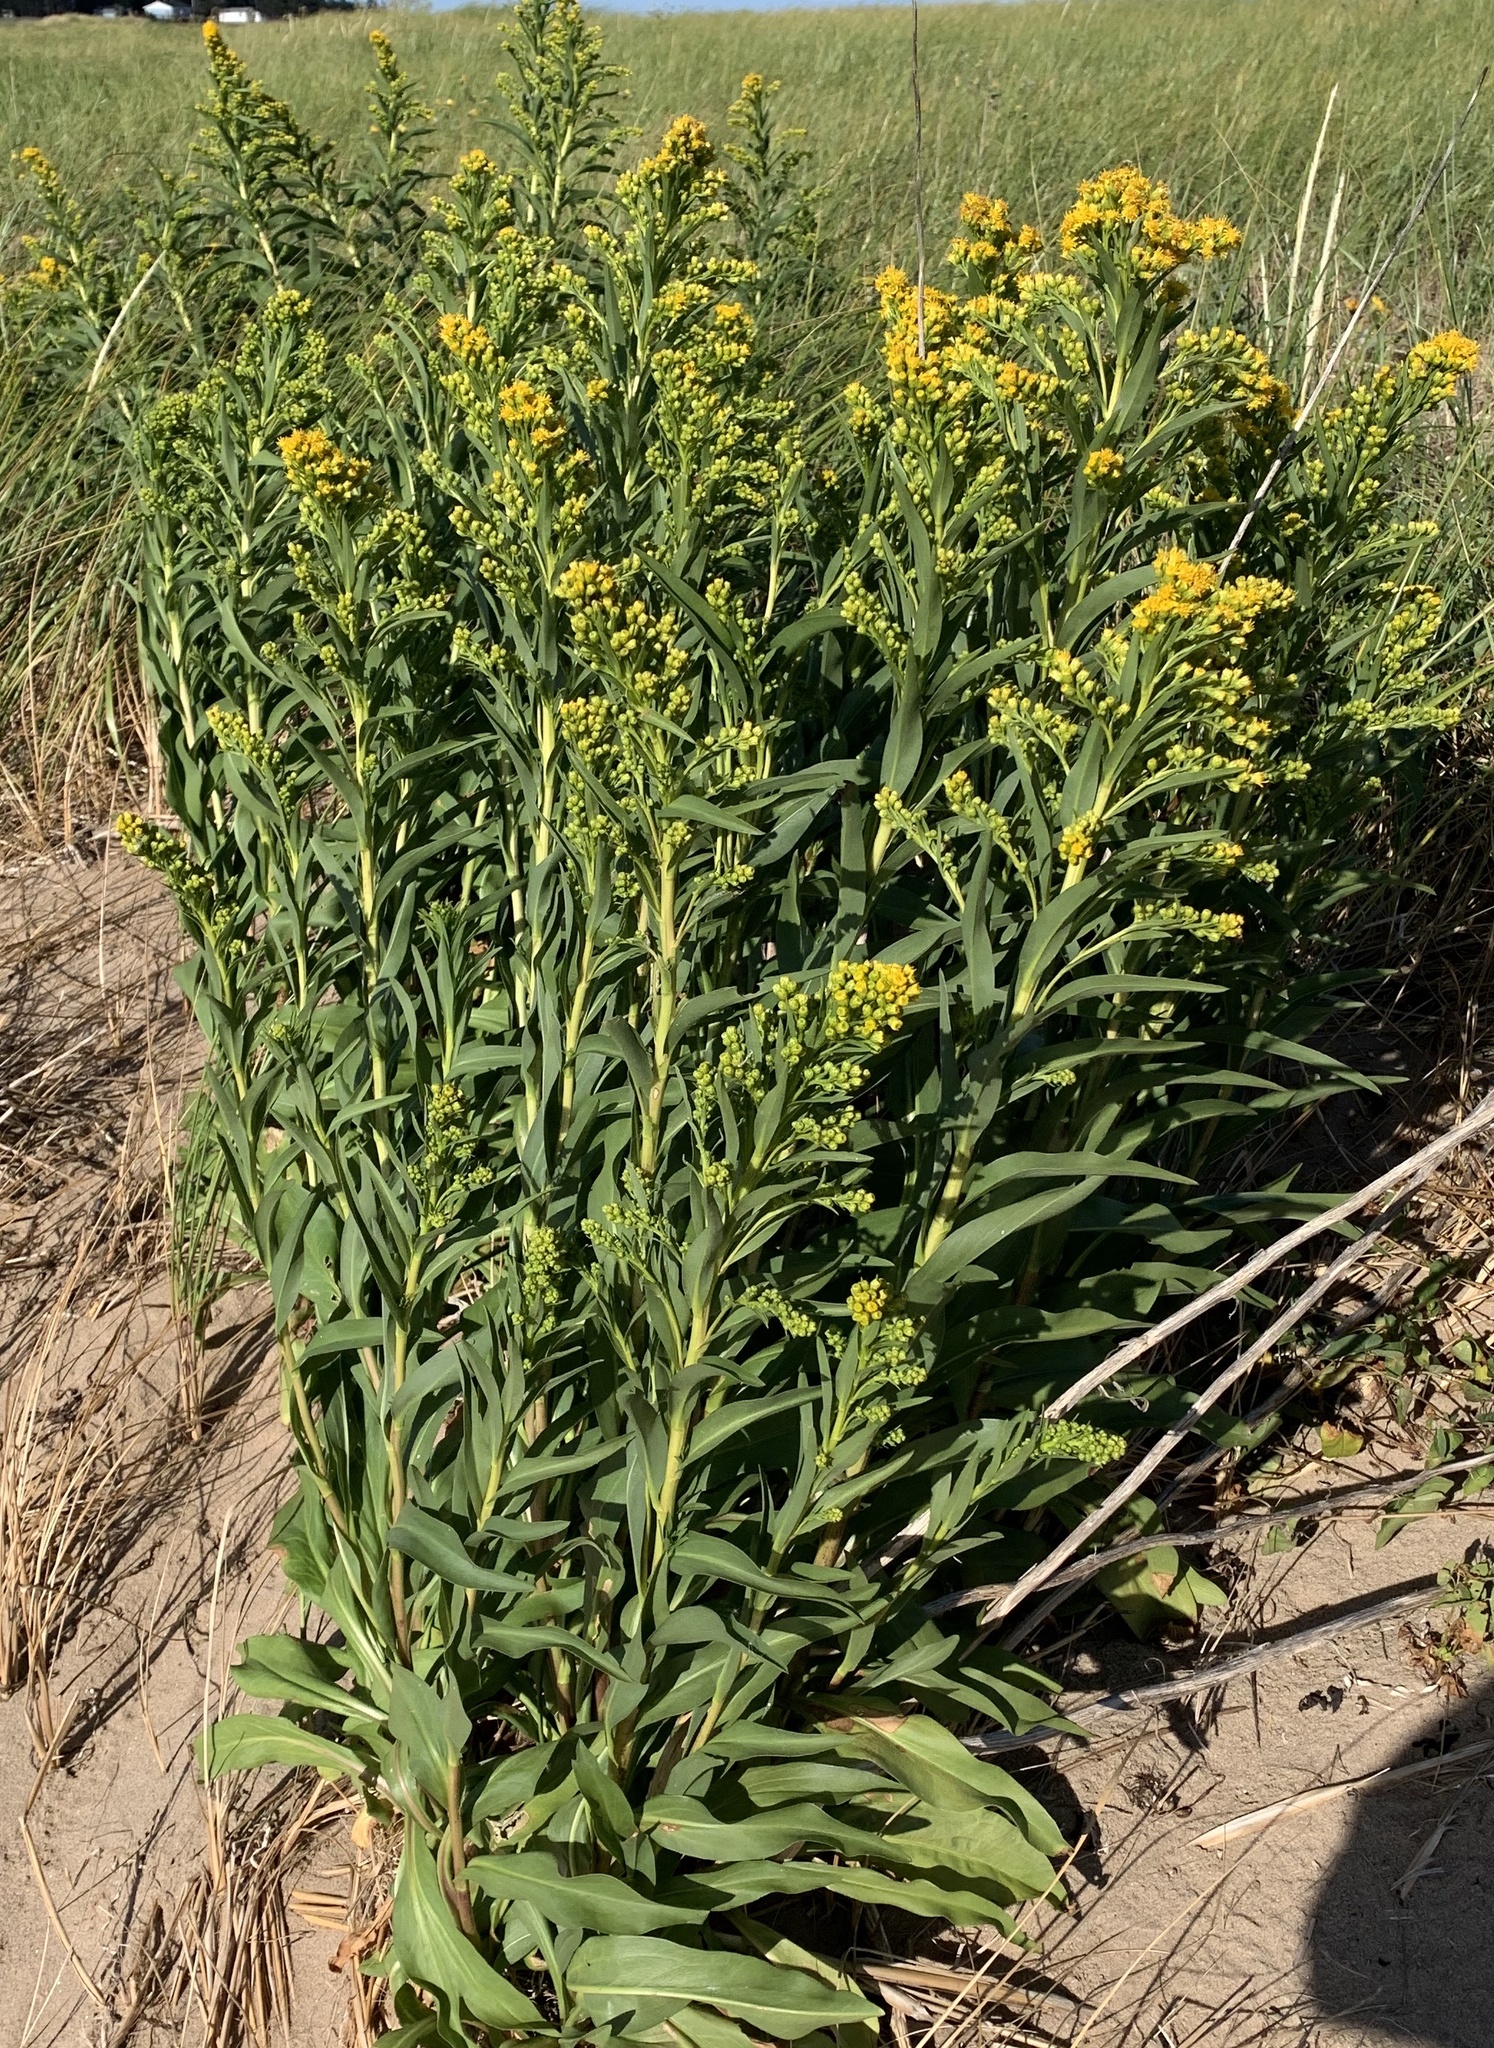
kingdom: Plantae
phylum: Tracheophyta
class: Magnoliopsida
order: Asterales
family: Asteraceae
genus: Solidago
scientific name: Solidago sempervirens
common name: Salt-marsh goldenrod
